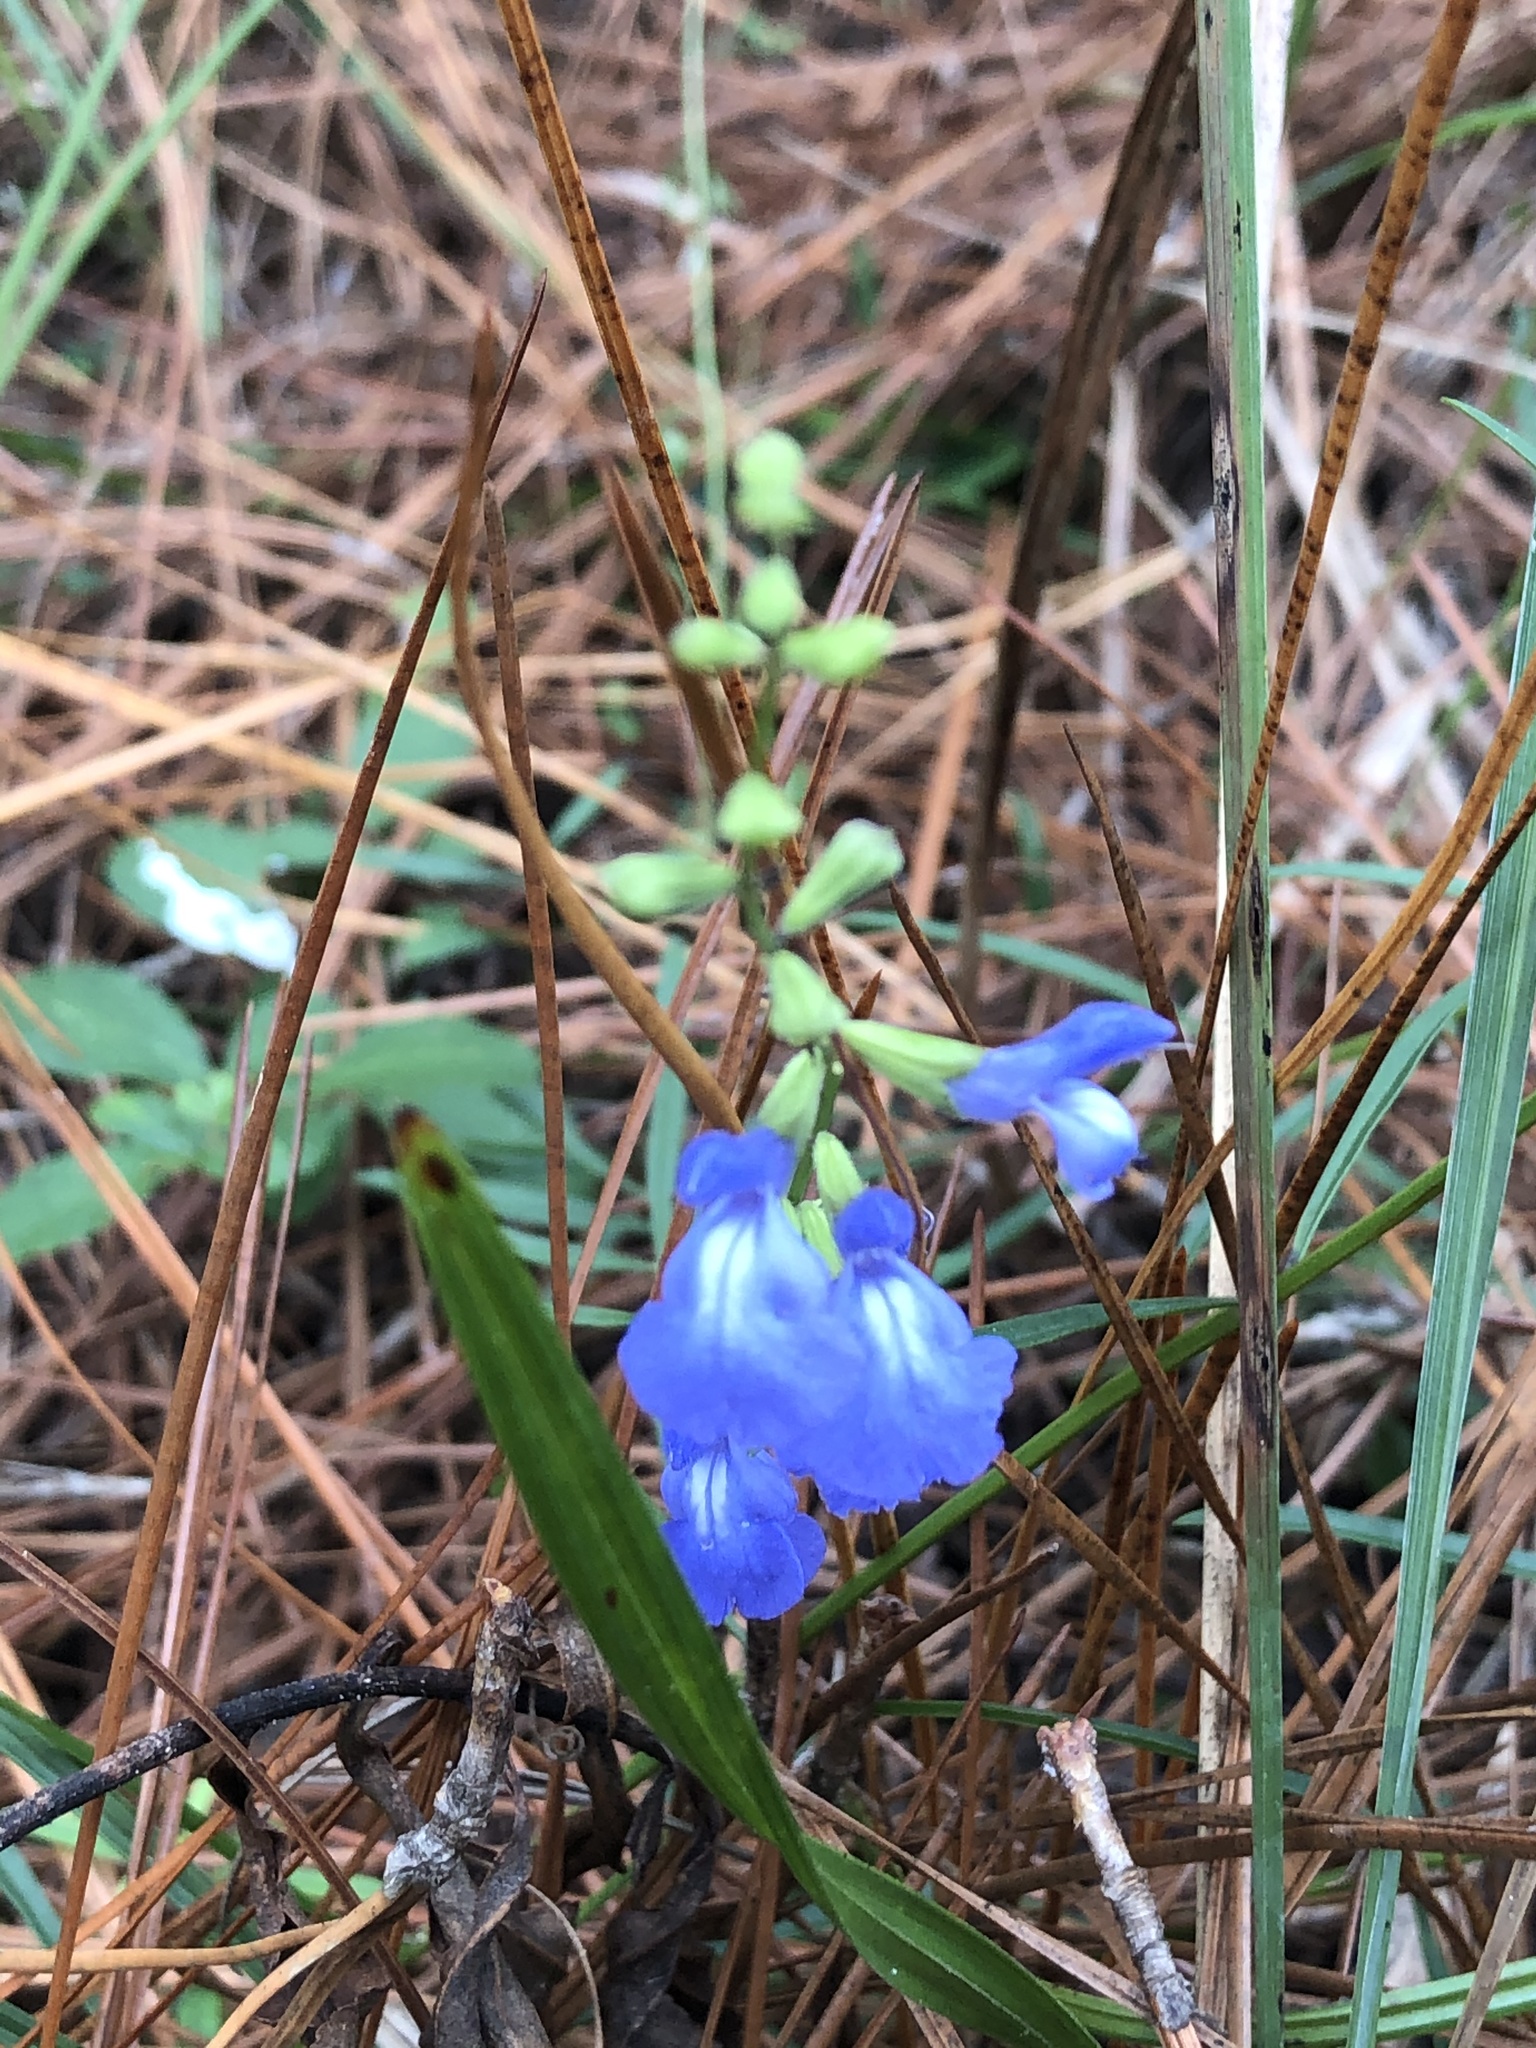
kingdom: Plantae
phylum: Tracheophyta
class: Magnoliopsida
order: Lamiales
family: Lamiaceae
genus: Salvia
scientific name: Salvia azurea
